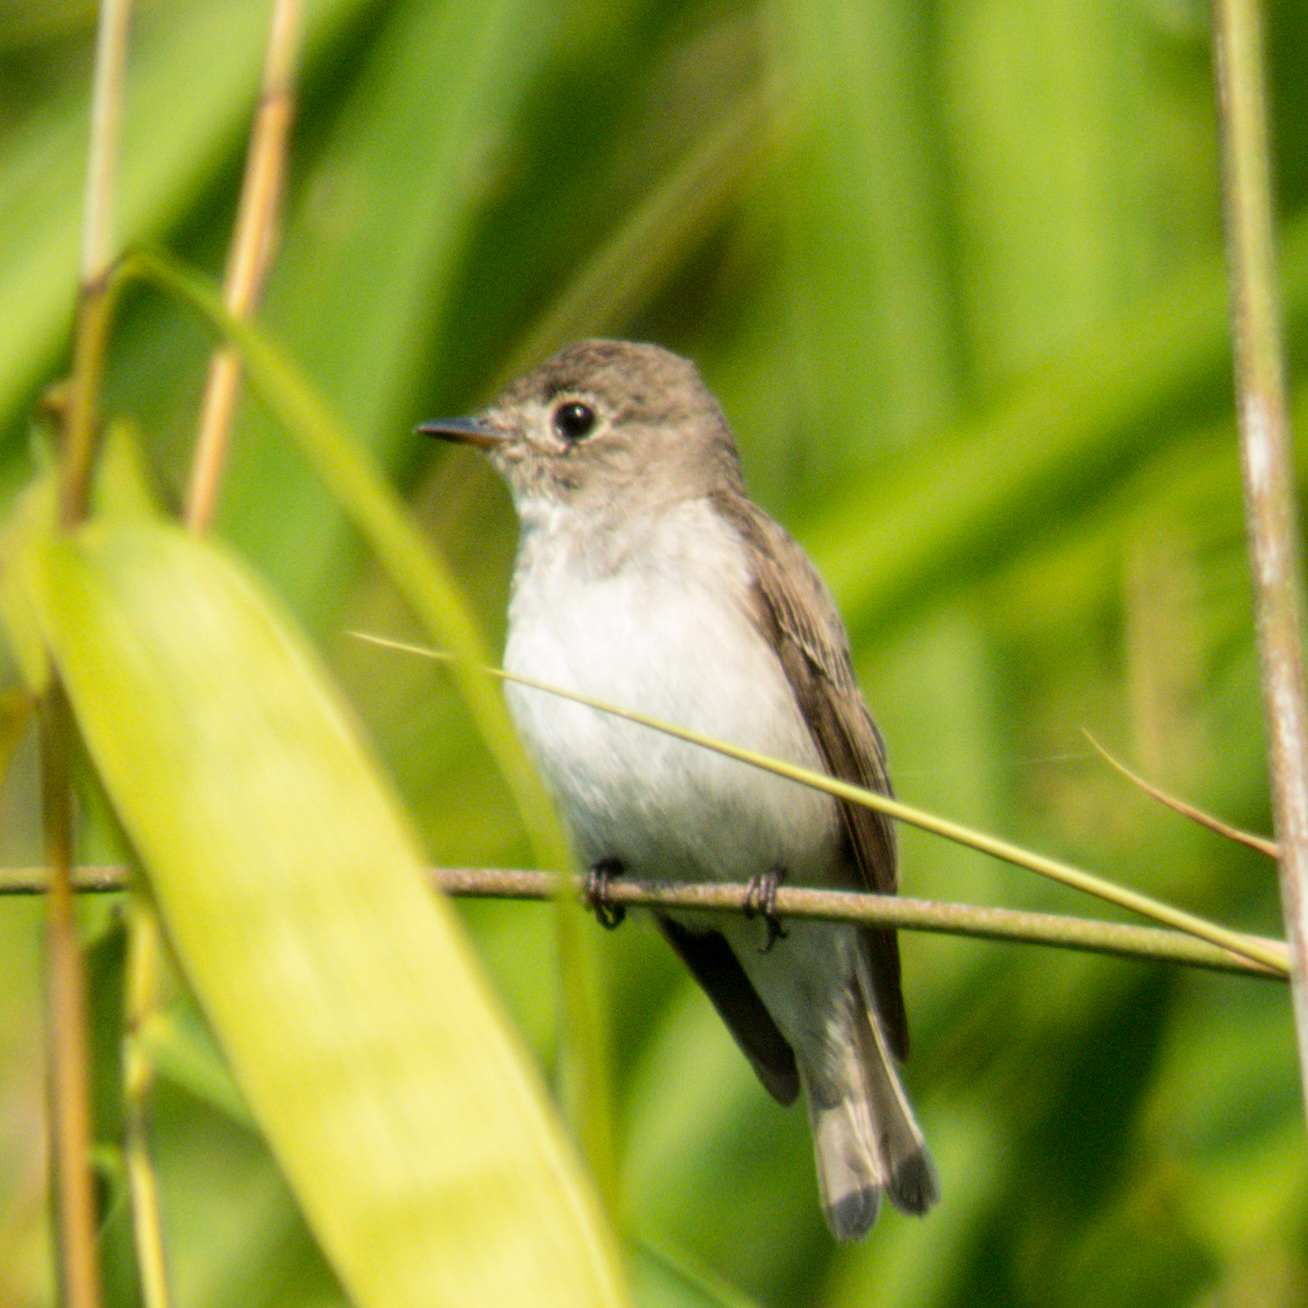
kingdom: Animalia
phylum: Chordata
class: Aves
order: Passeriformes
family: Muscicapidae
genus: Muscicapa
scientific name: Muscicapa latirostris
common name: Asian brown flycatcher
